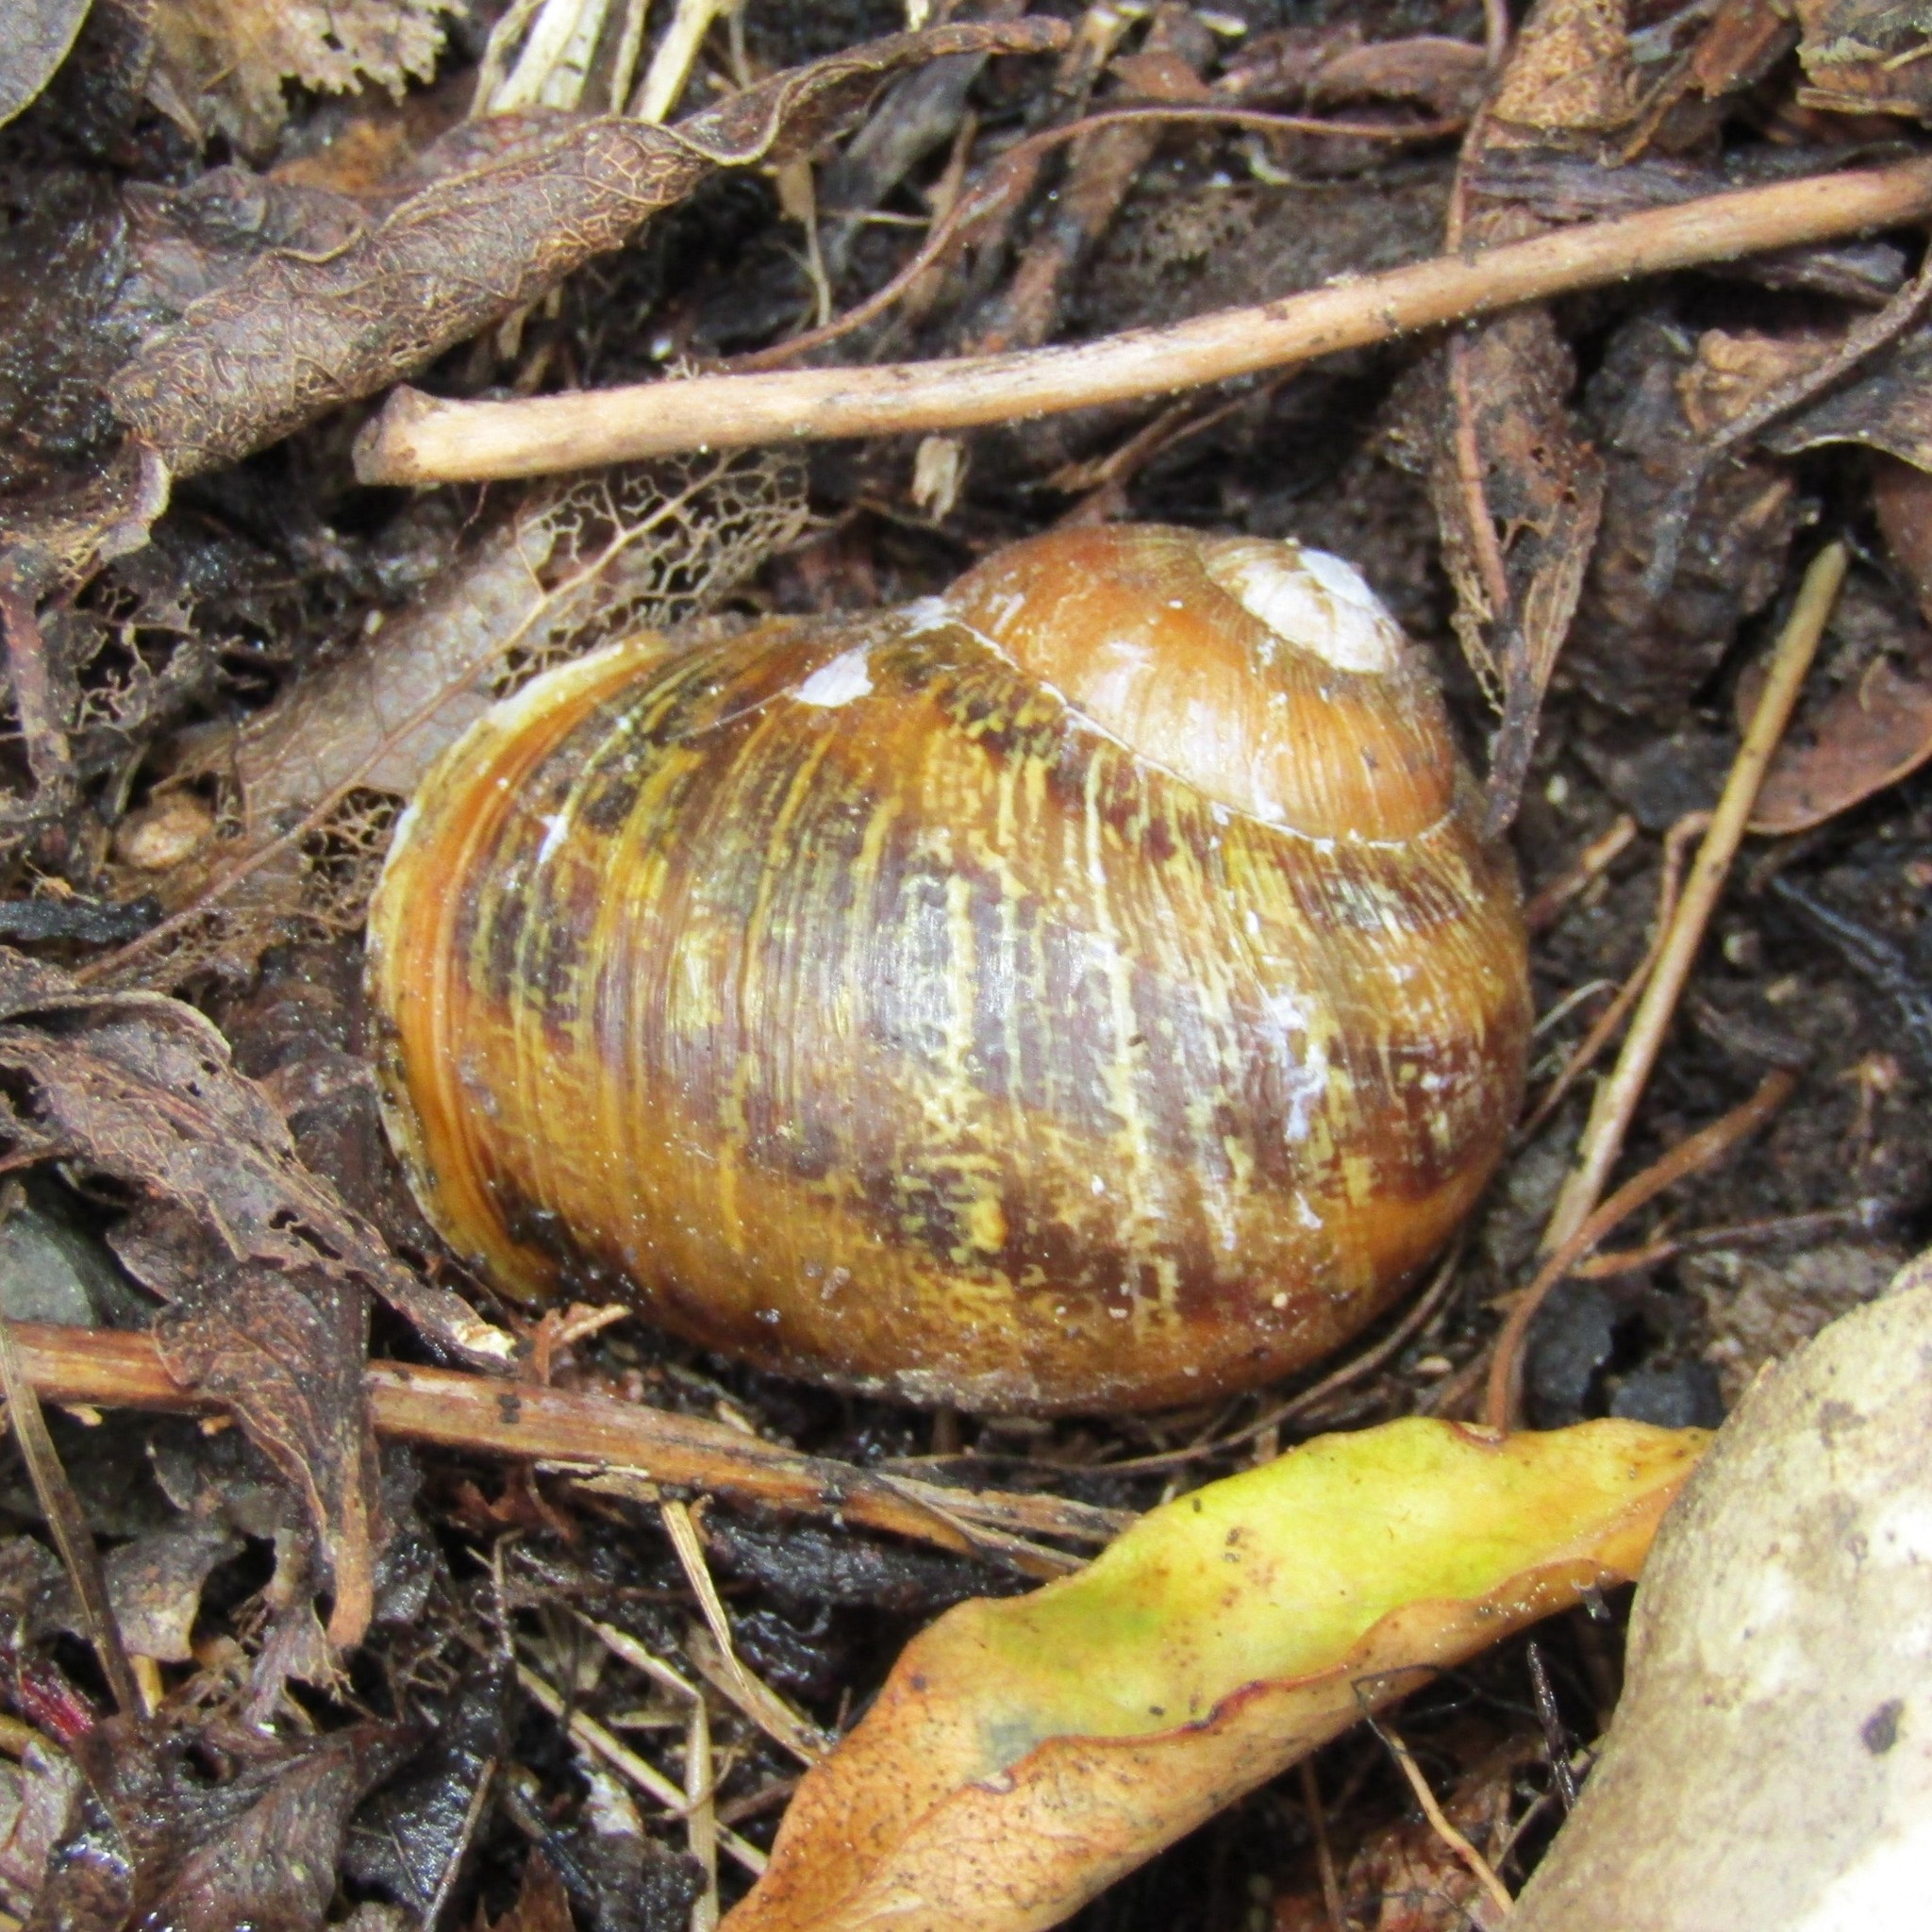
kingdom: Animalia
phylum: Mollusca
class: Gastropoda
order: Stylommatophora
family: Helicidae
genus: Cornu
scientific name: Cornu aspersum
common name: Brown garden snail
